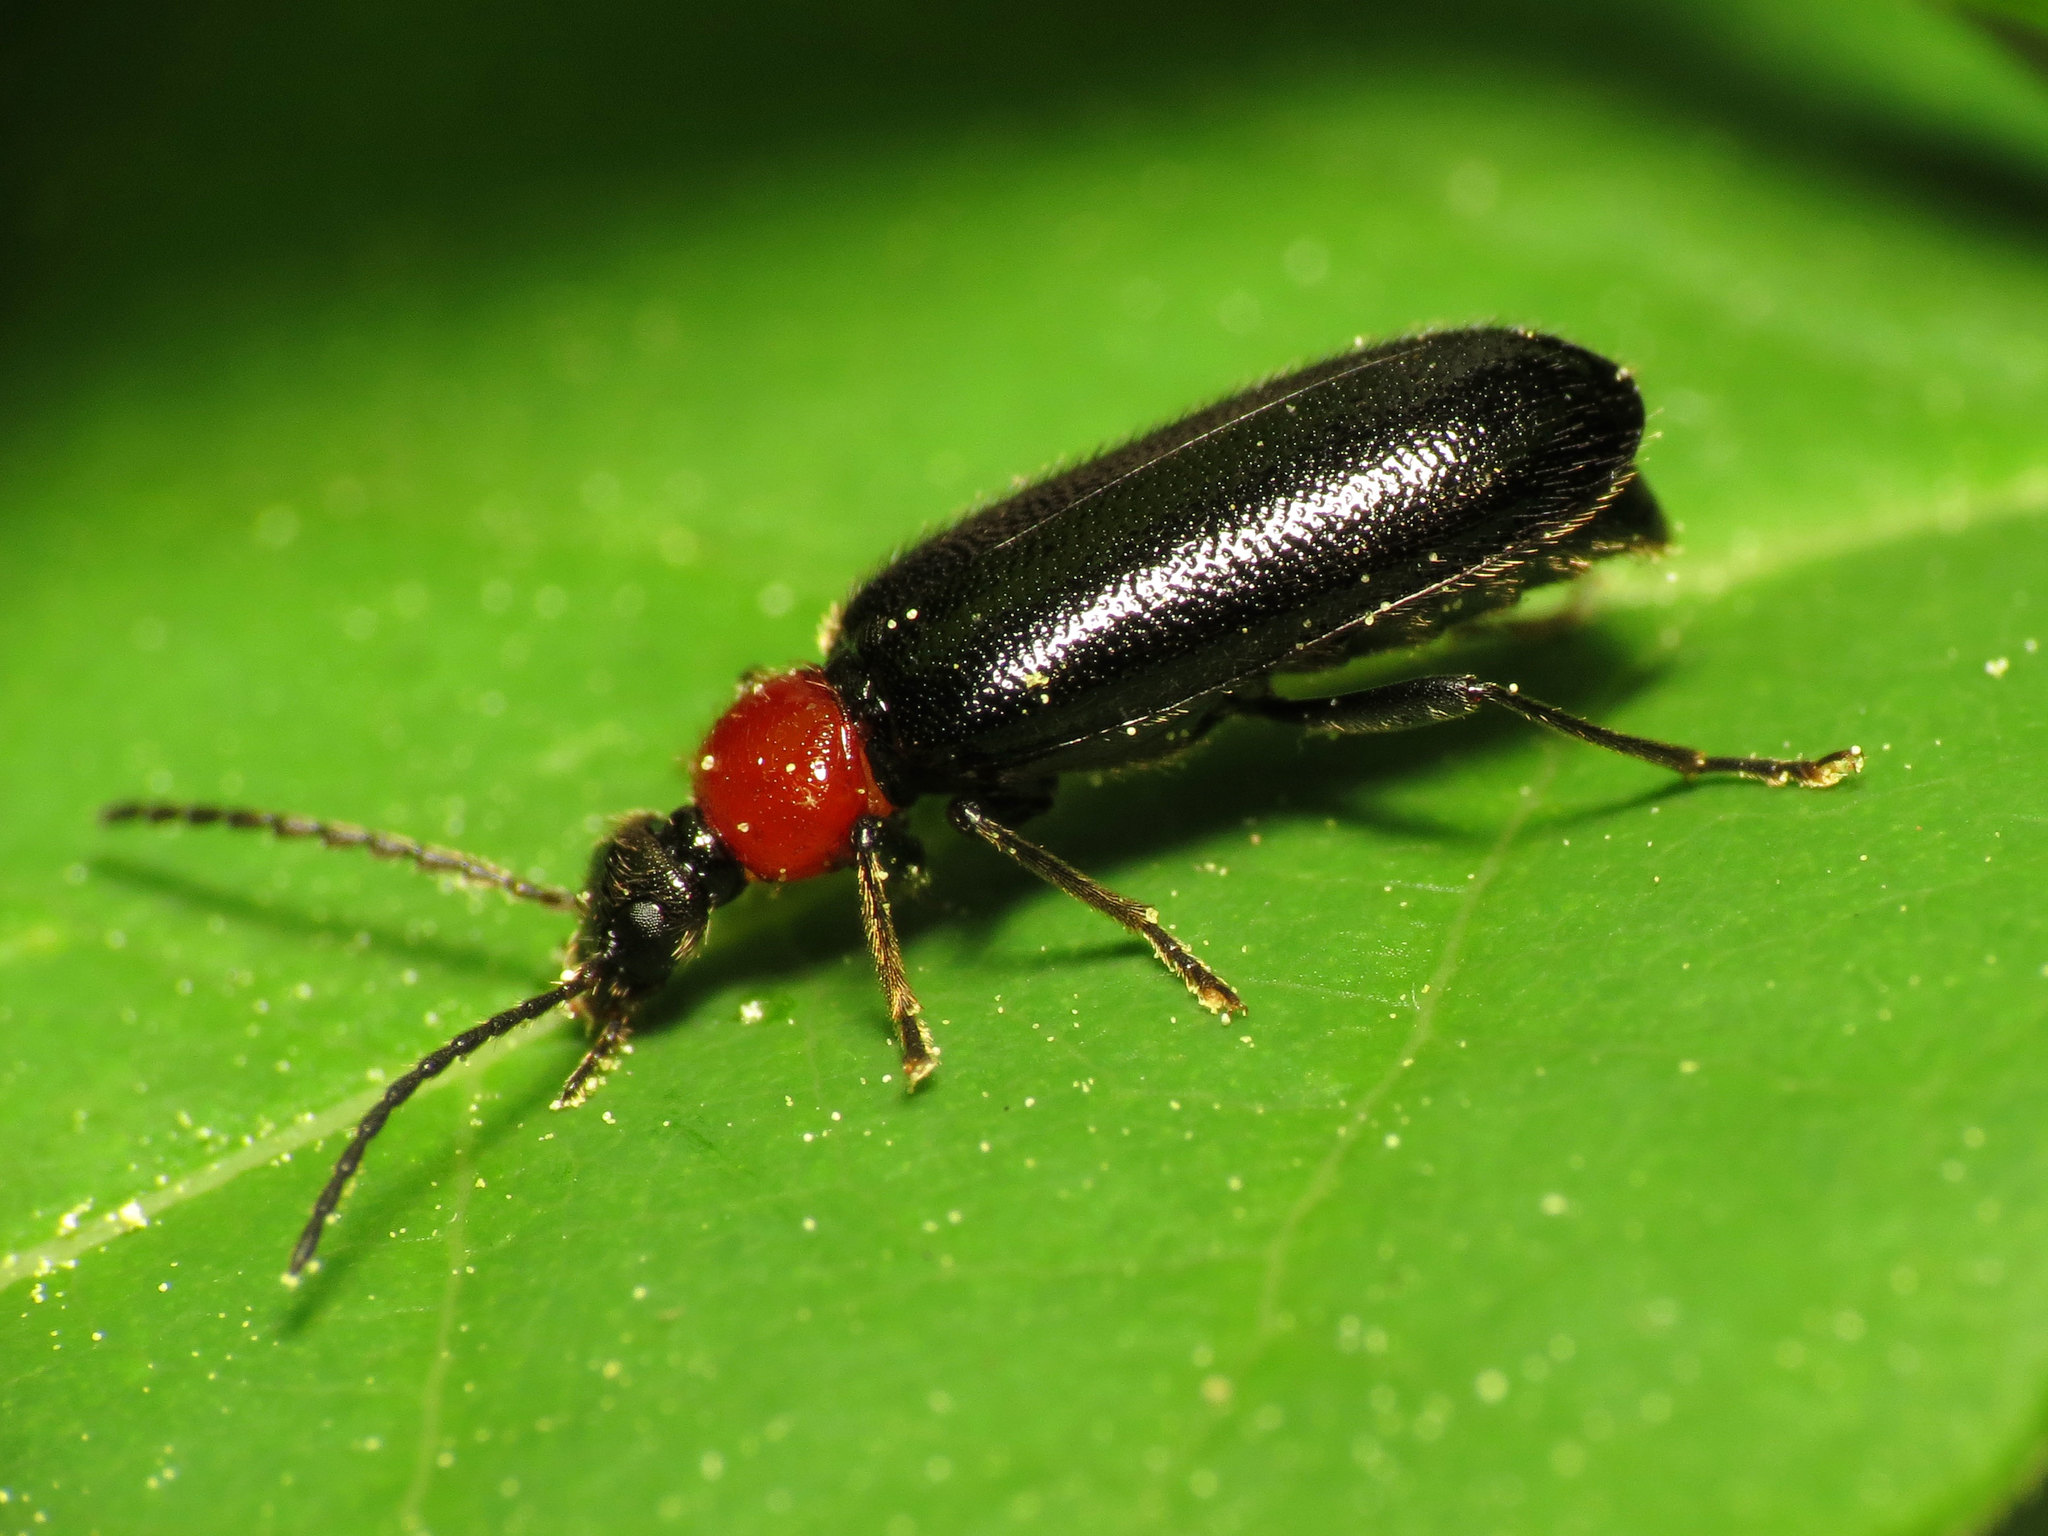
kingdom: Animalia
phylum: Arthropoda
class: Insecta
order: Coleoptera
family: Pyrochroidae
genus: Pedilus
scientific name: Pedilus lugubris
